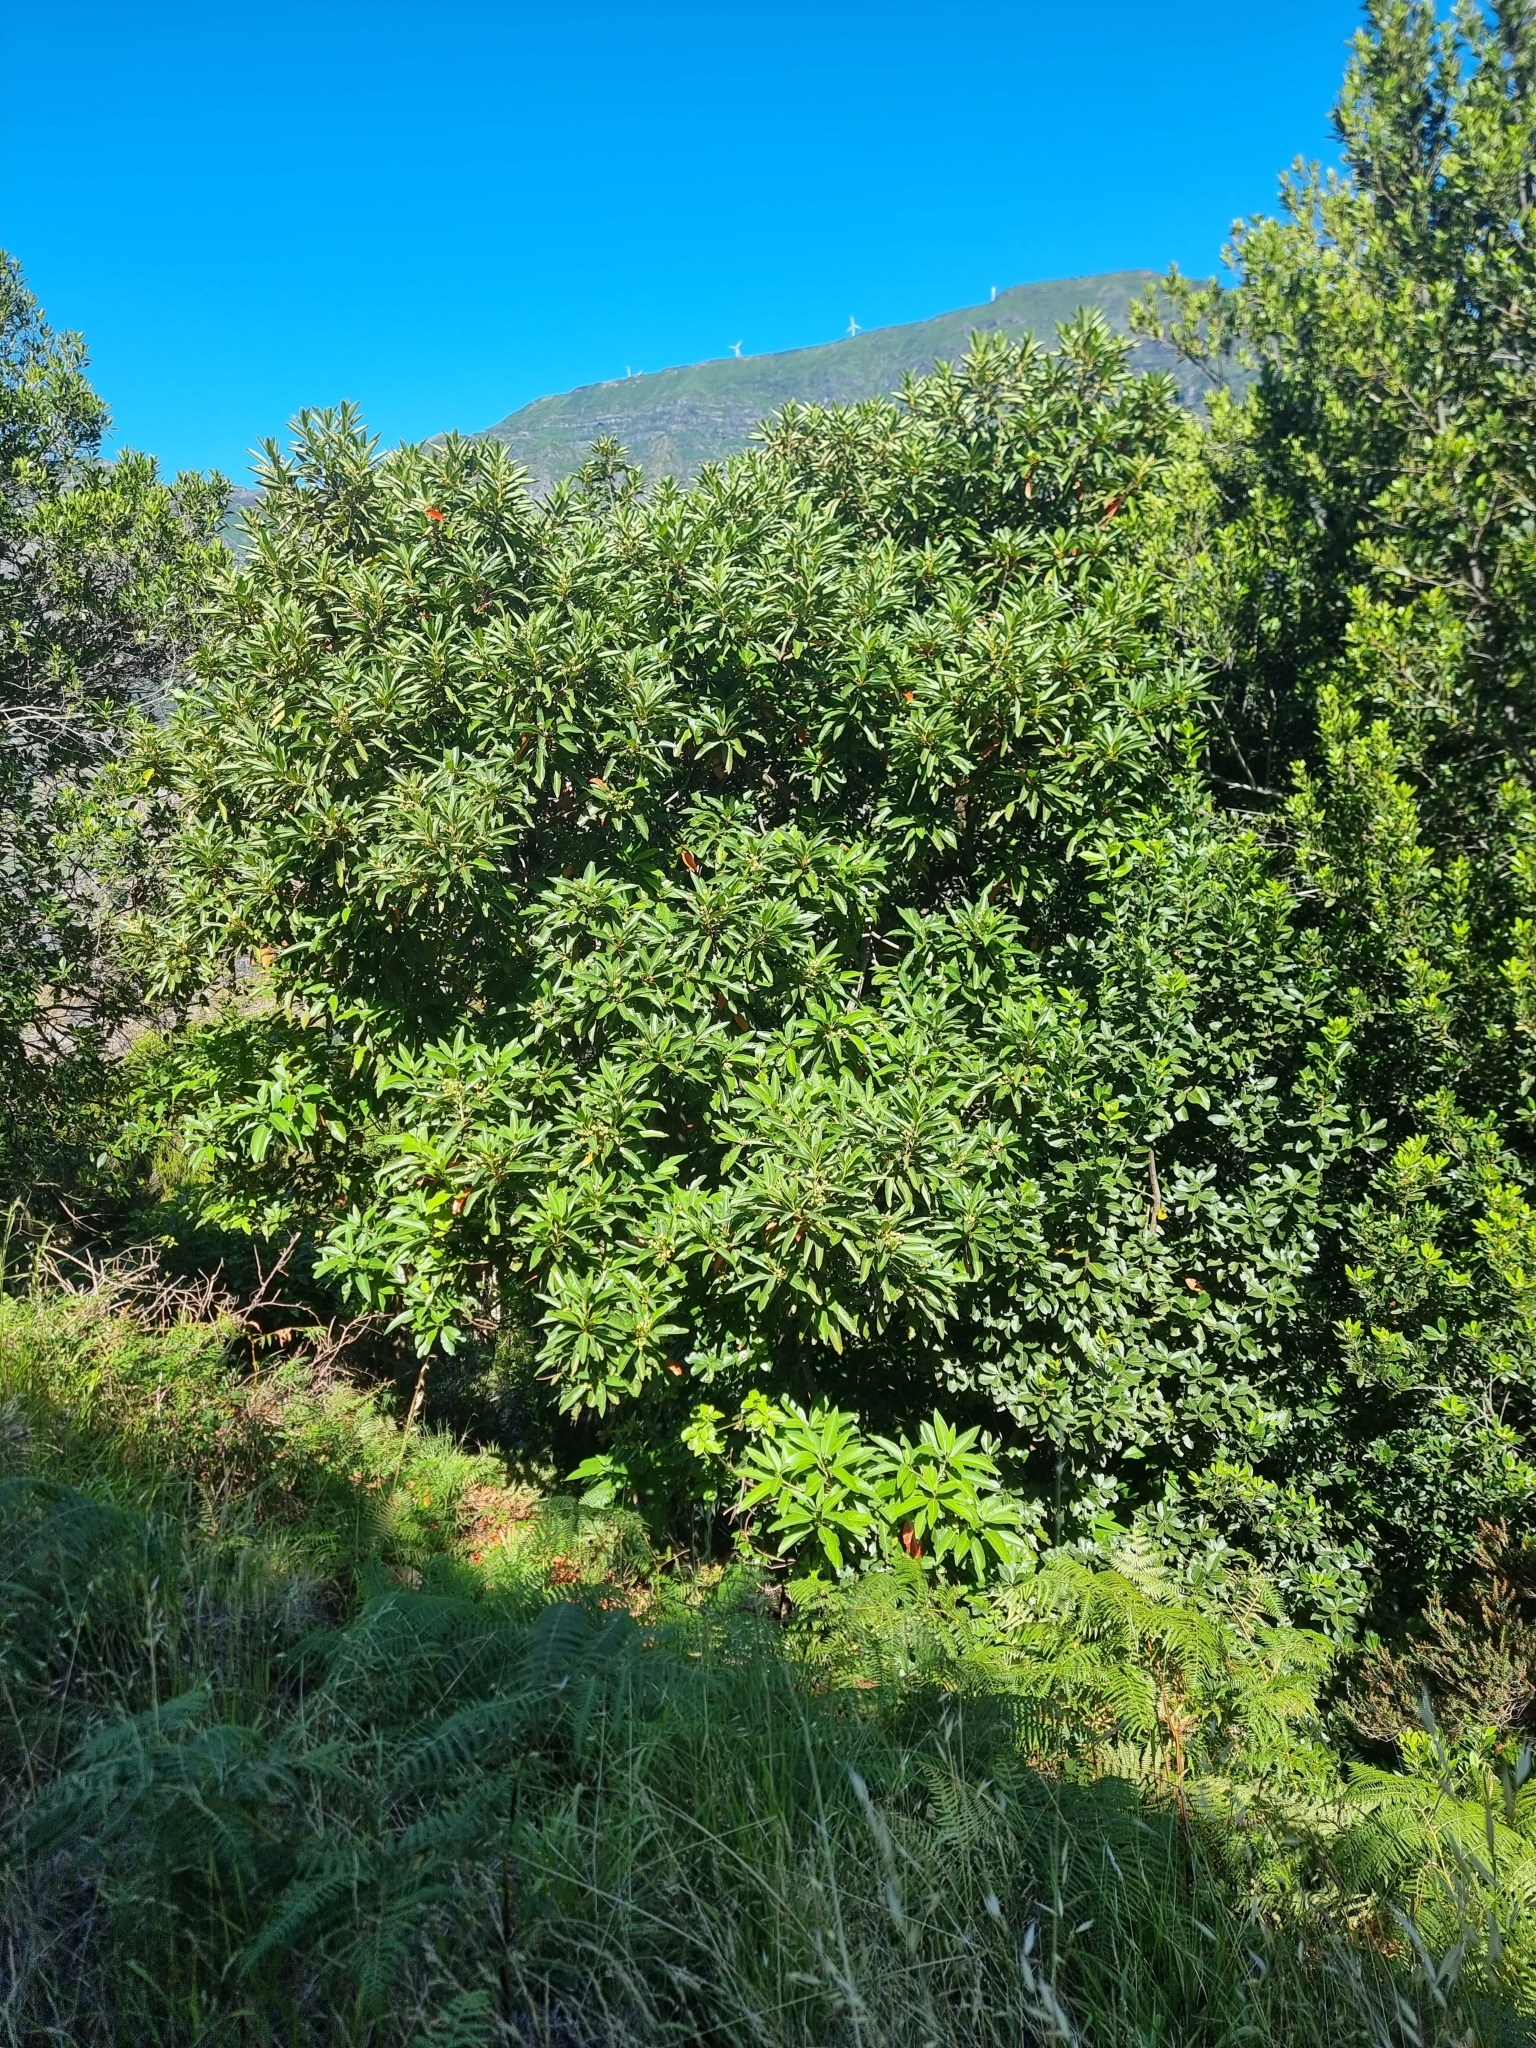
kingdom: Plantae
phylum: Tracheophyta
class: Magnoliopsida
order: Laurales
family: Lauraceae
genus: Persea
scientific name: Persea indica
